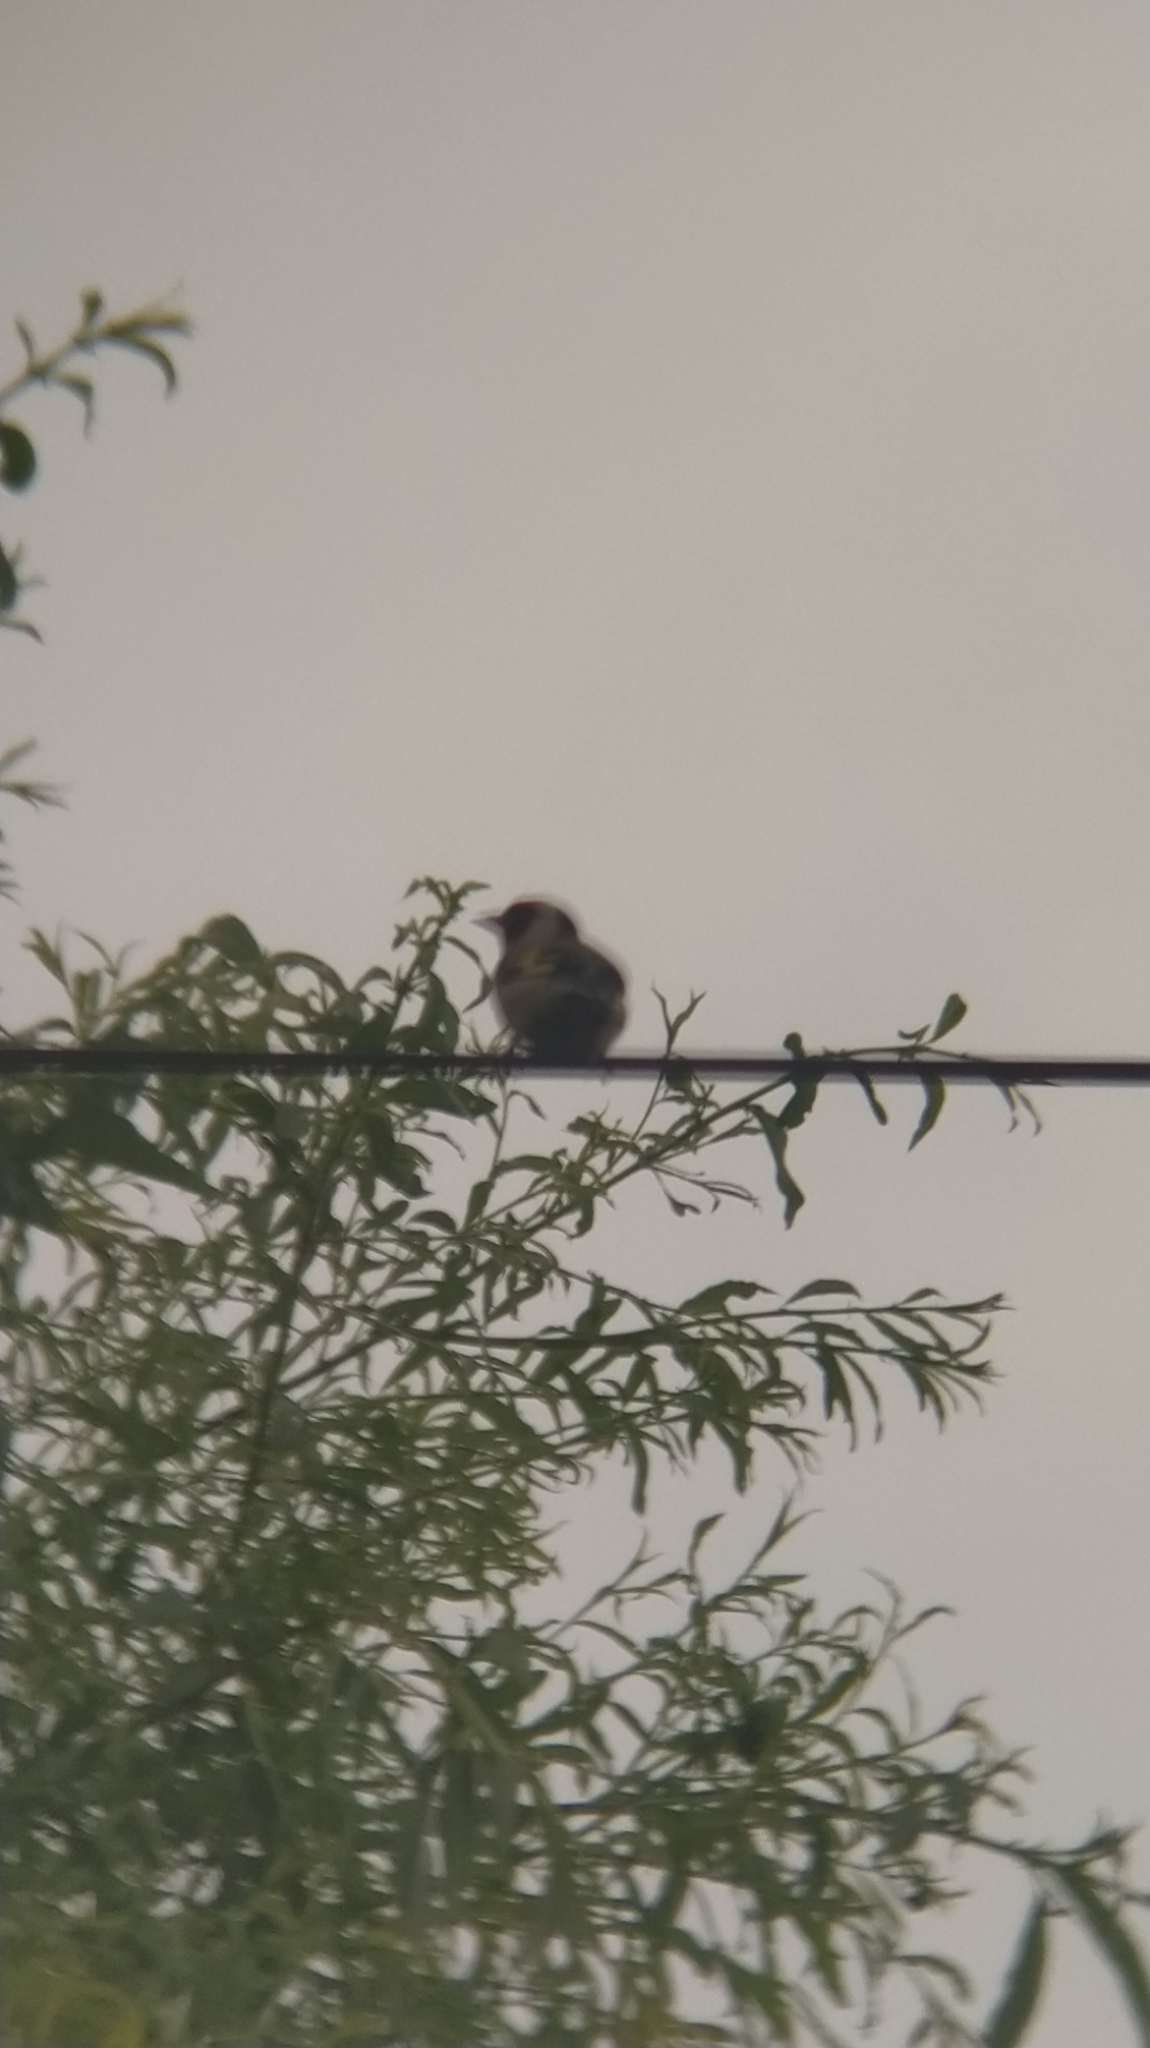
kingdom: Animalia
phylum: Chordata
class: Aves
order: Passeriformes
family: Fringillidae
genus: Carduelis
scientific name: Carduelis carduelis
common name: European goldfinch
